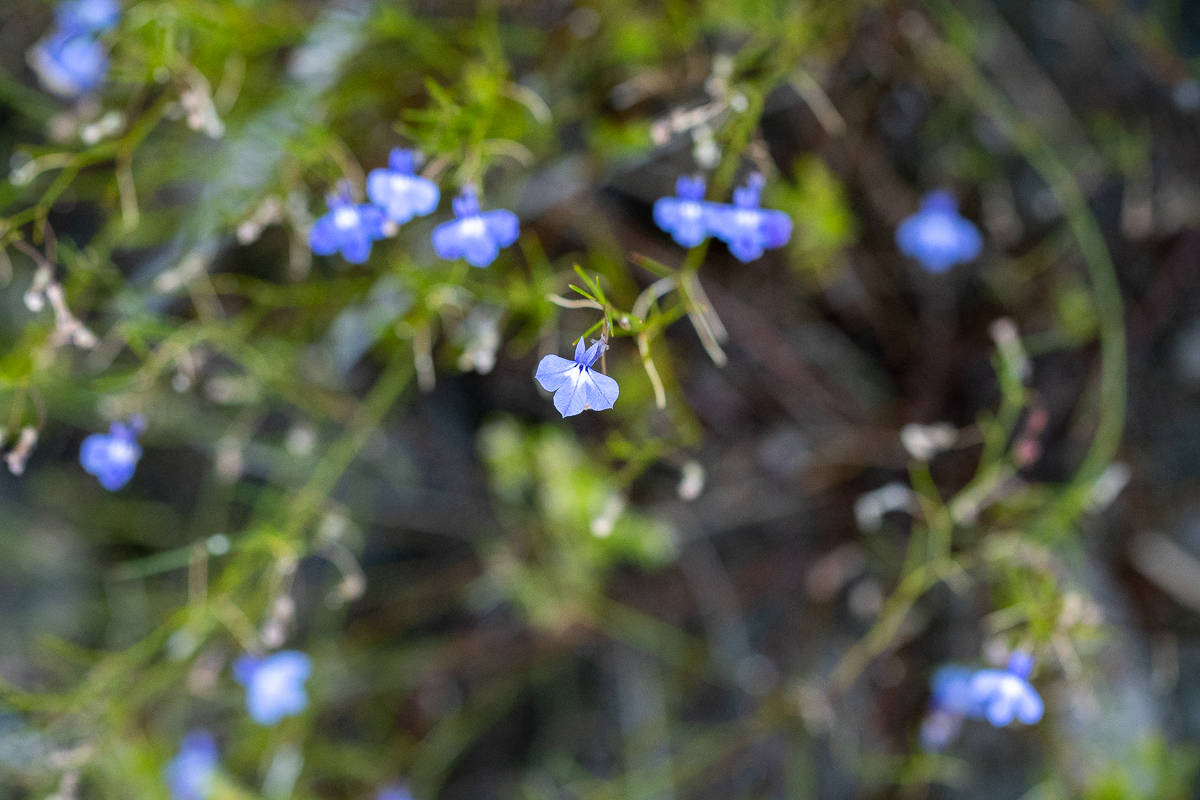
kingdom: Plantae
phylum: Tracheophyta
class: Magnoliopsida
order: Asterales
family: Campanulaceae
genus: Lobelia
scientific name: Lobelia setacea
